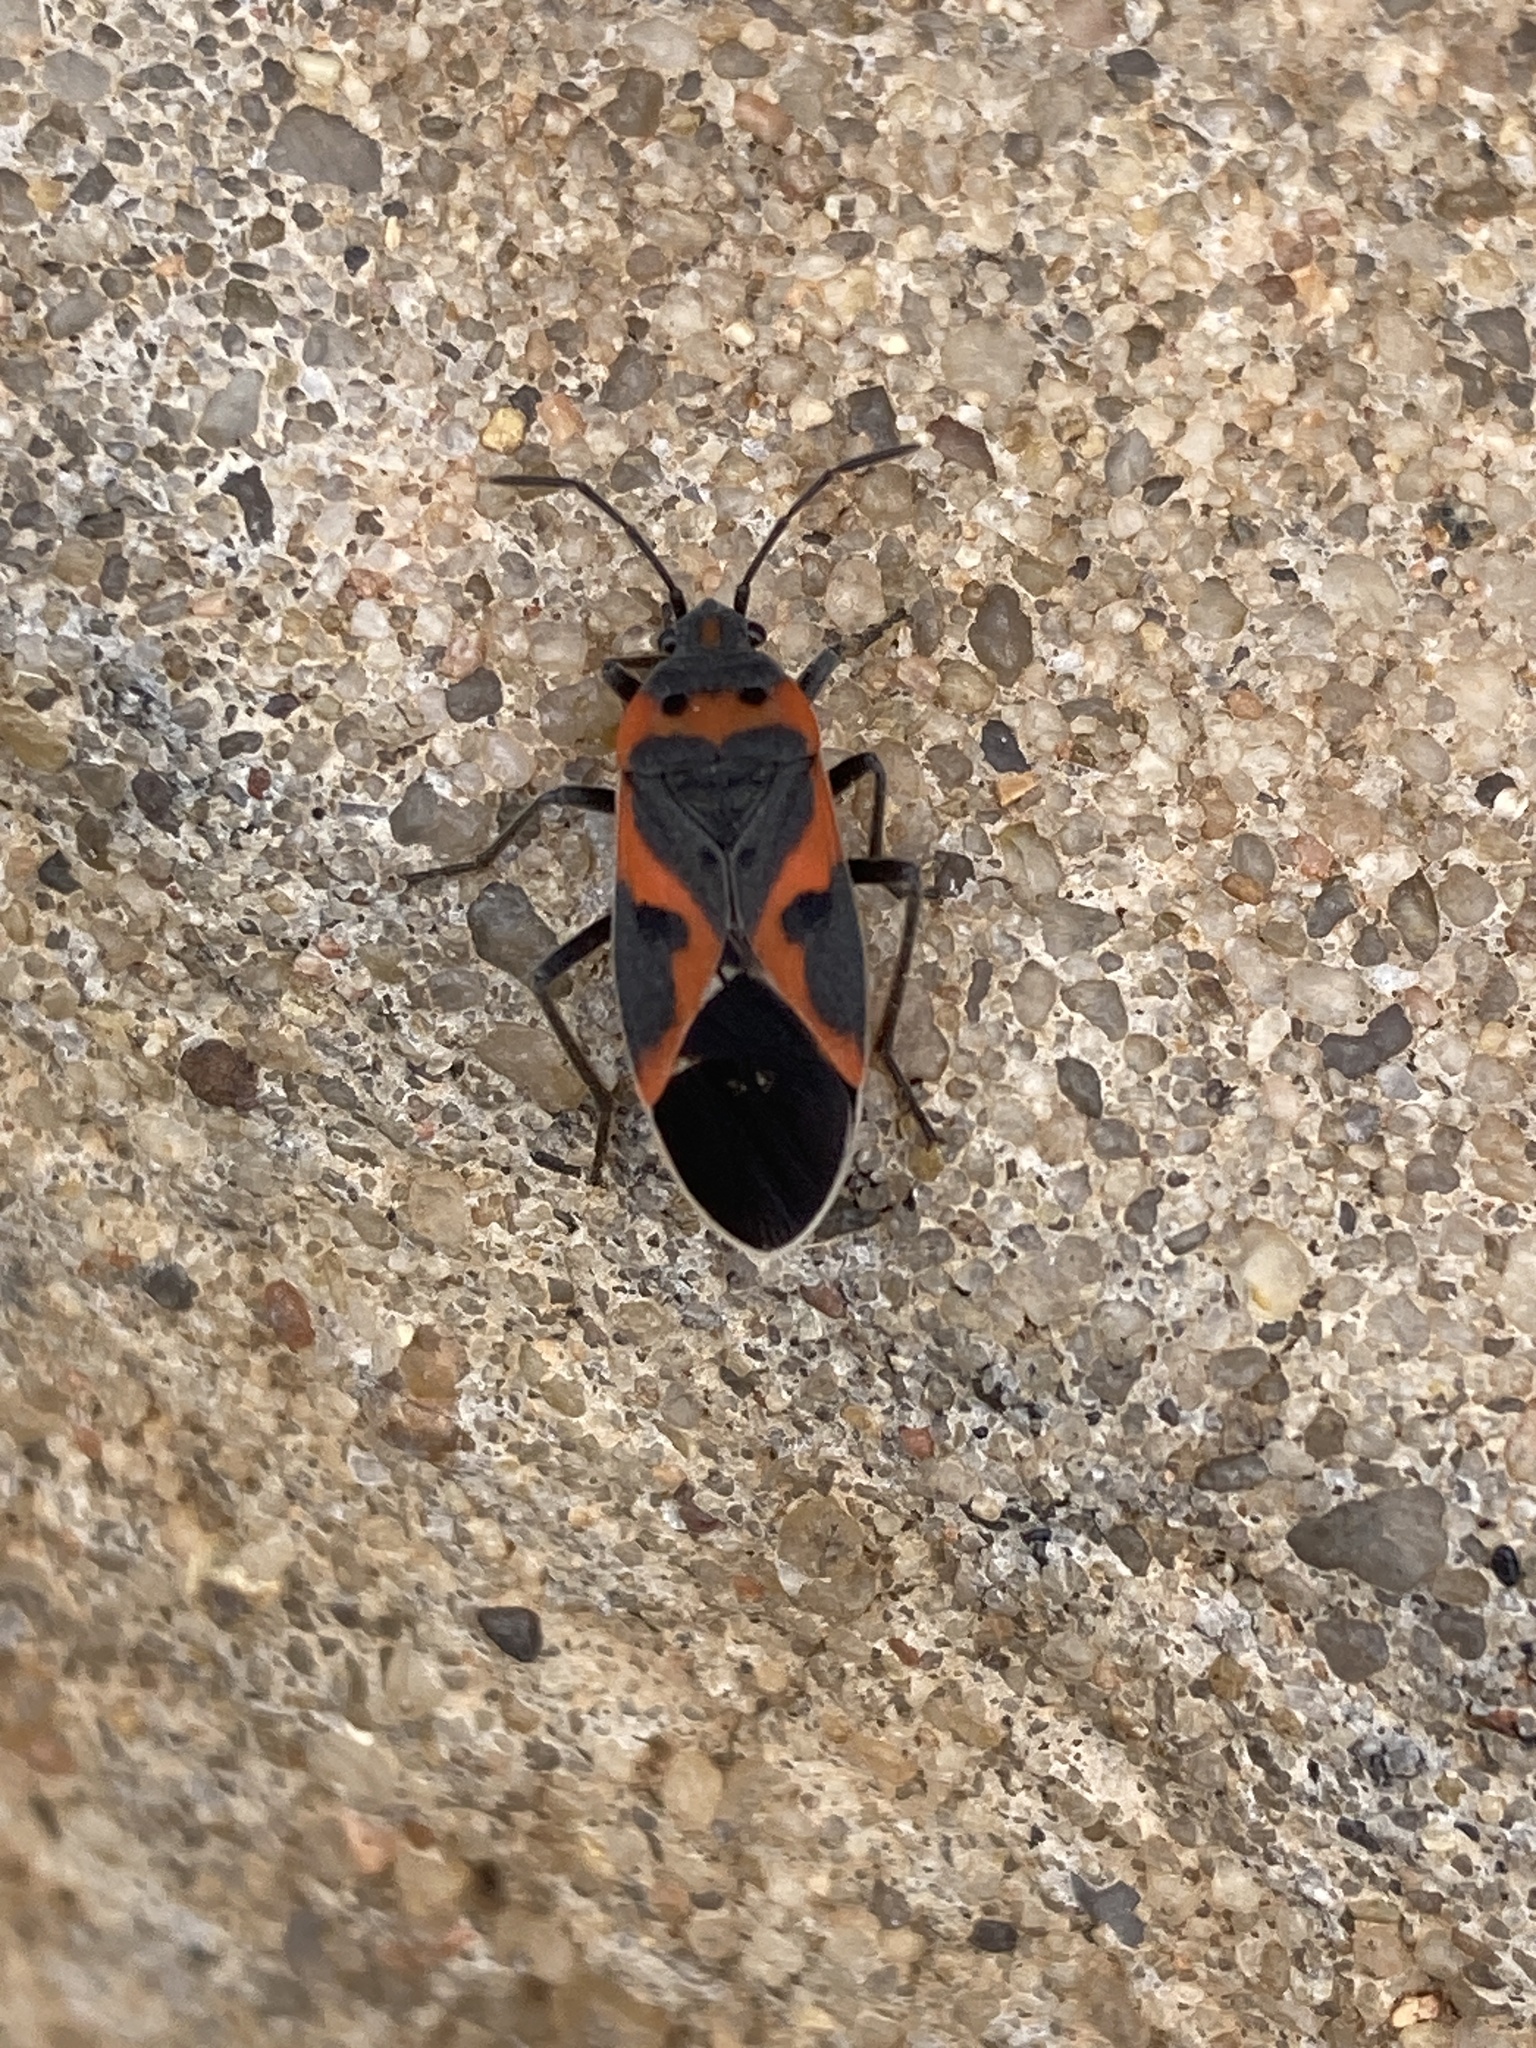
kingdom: Animalia
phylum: Arthropoda
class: Insecta
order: Hemiptera
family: Lygaeidae
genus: Lygaeus
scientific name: Lygaeus kalmii
